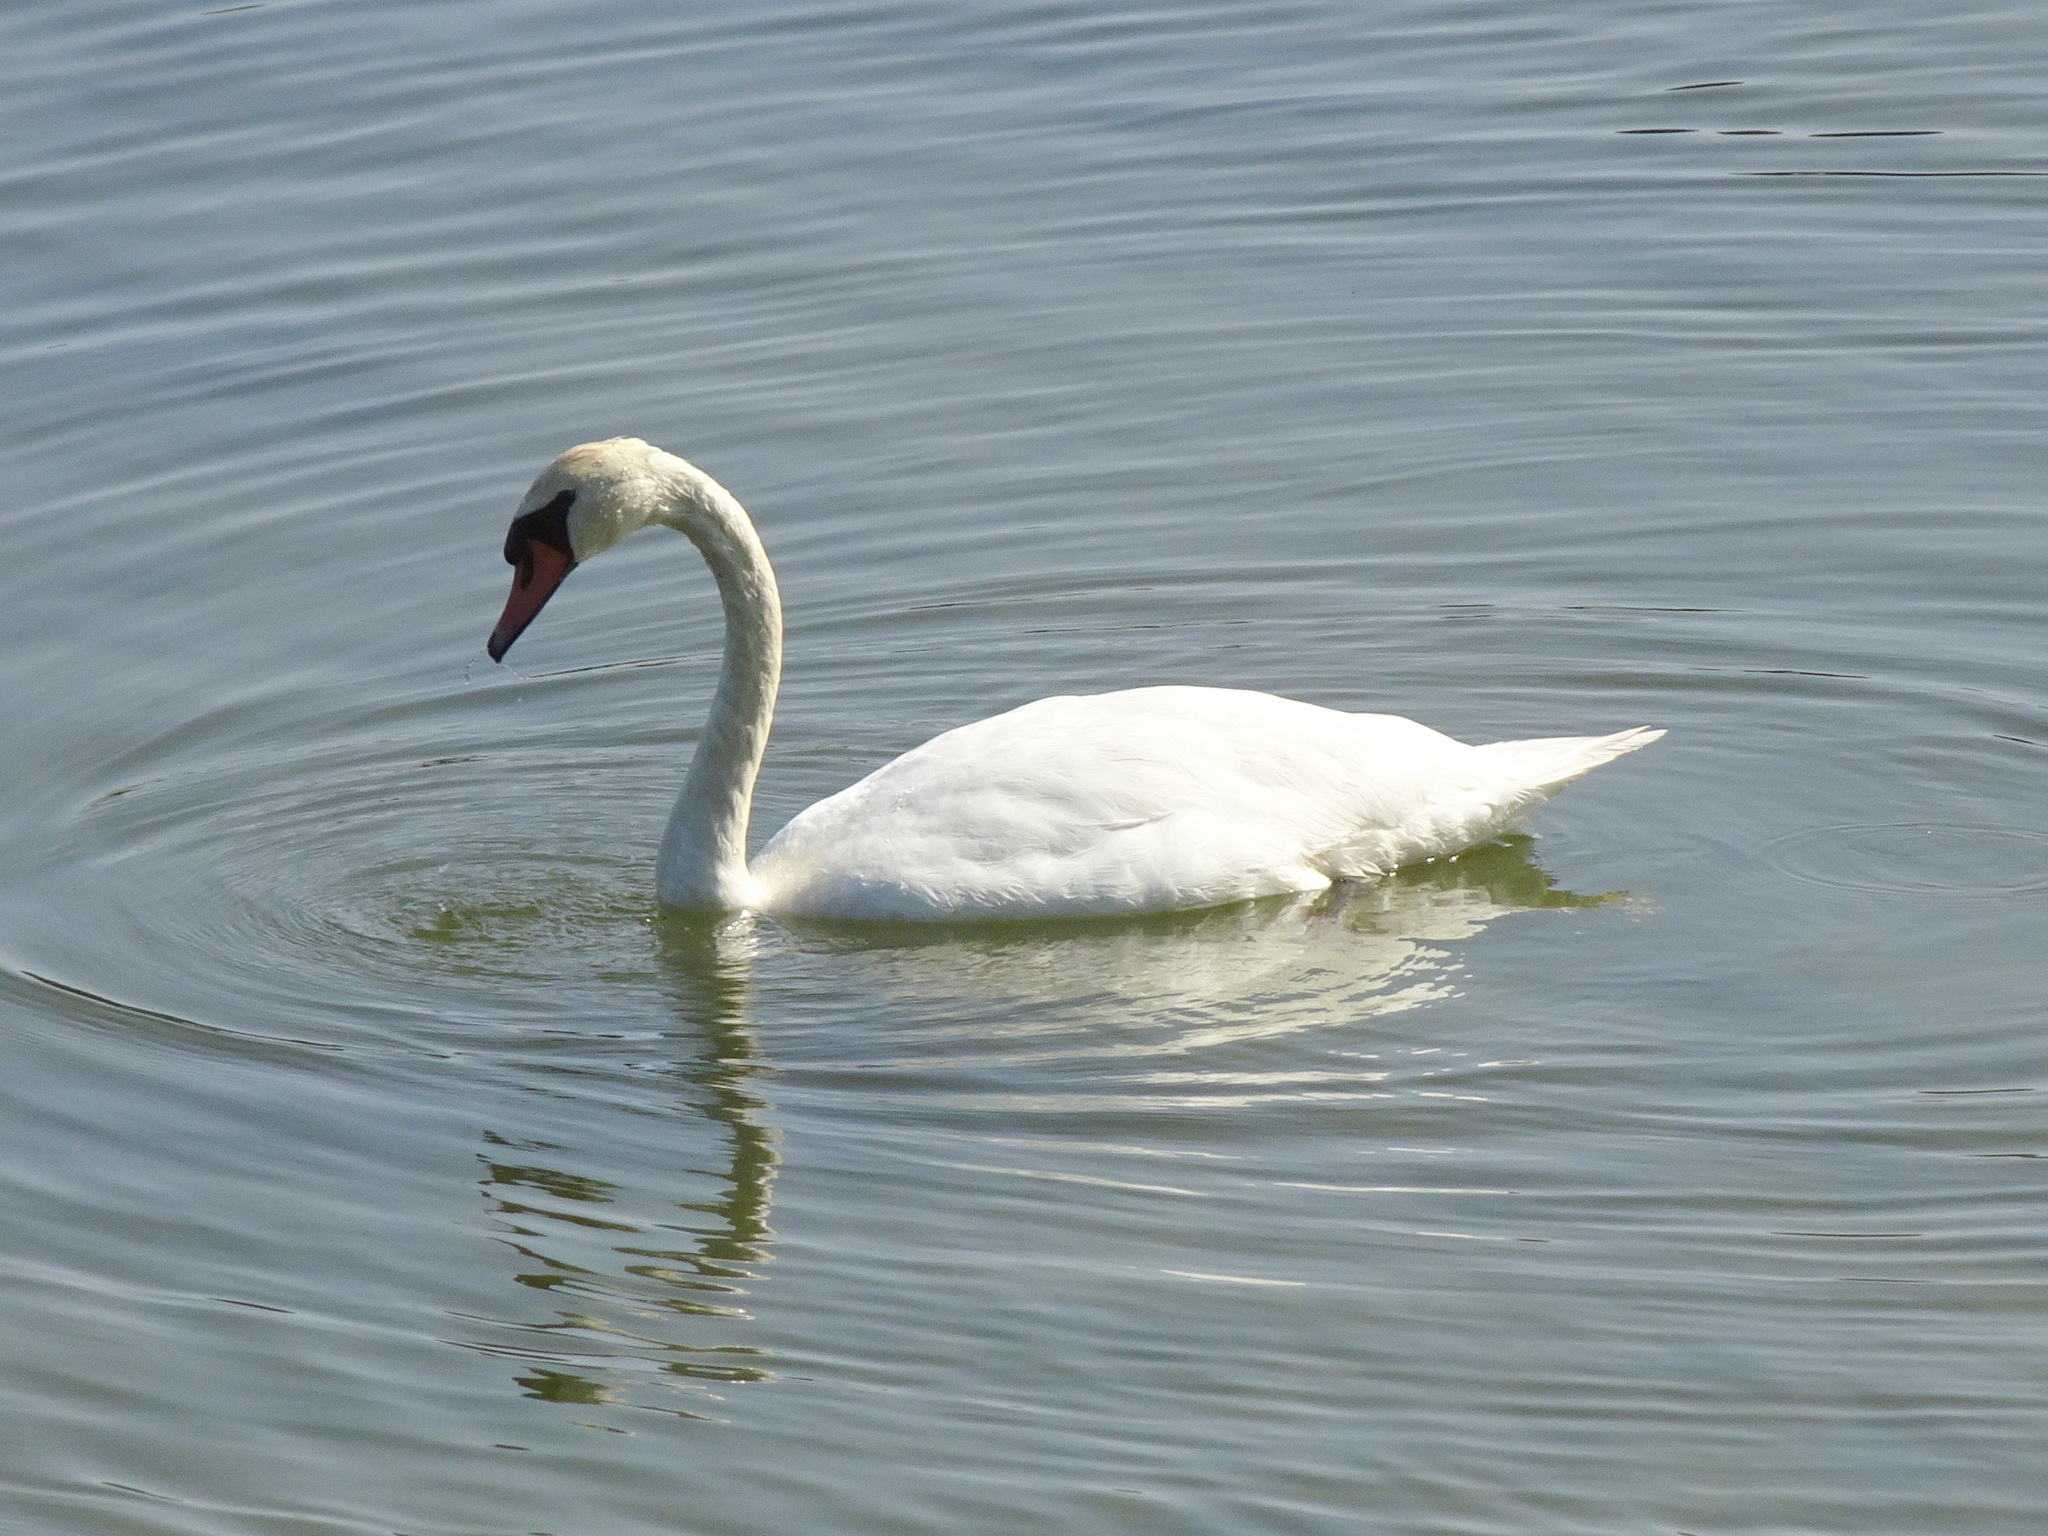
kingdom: Animalia
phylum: Chordata
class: Aves
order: Anseriformes
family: Anatidae
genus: Cygnus
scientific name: Cygnus olor
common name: Mute swan
